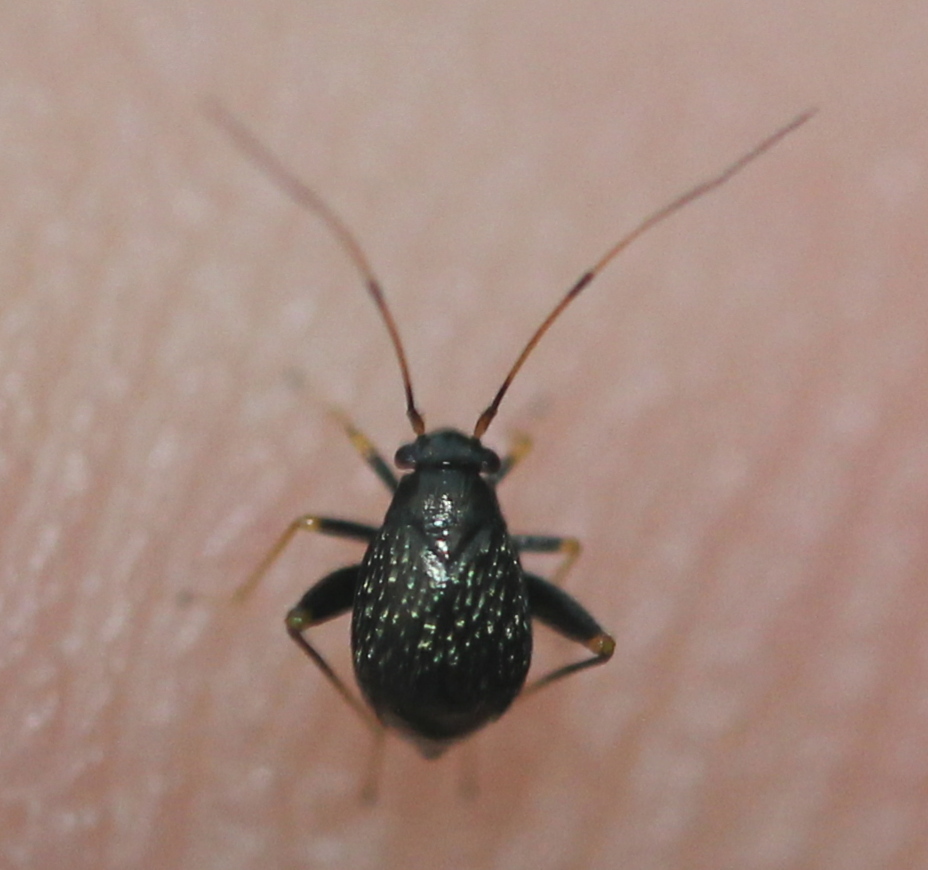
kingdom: Animalia
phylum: Arthropoda
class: Insecta
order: Hemiptera
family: Miridae
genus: Microtechnites
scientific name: Microtechnites bractatus
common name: Garden fleahopper
